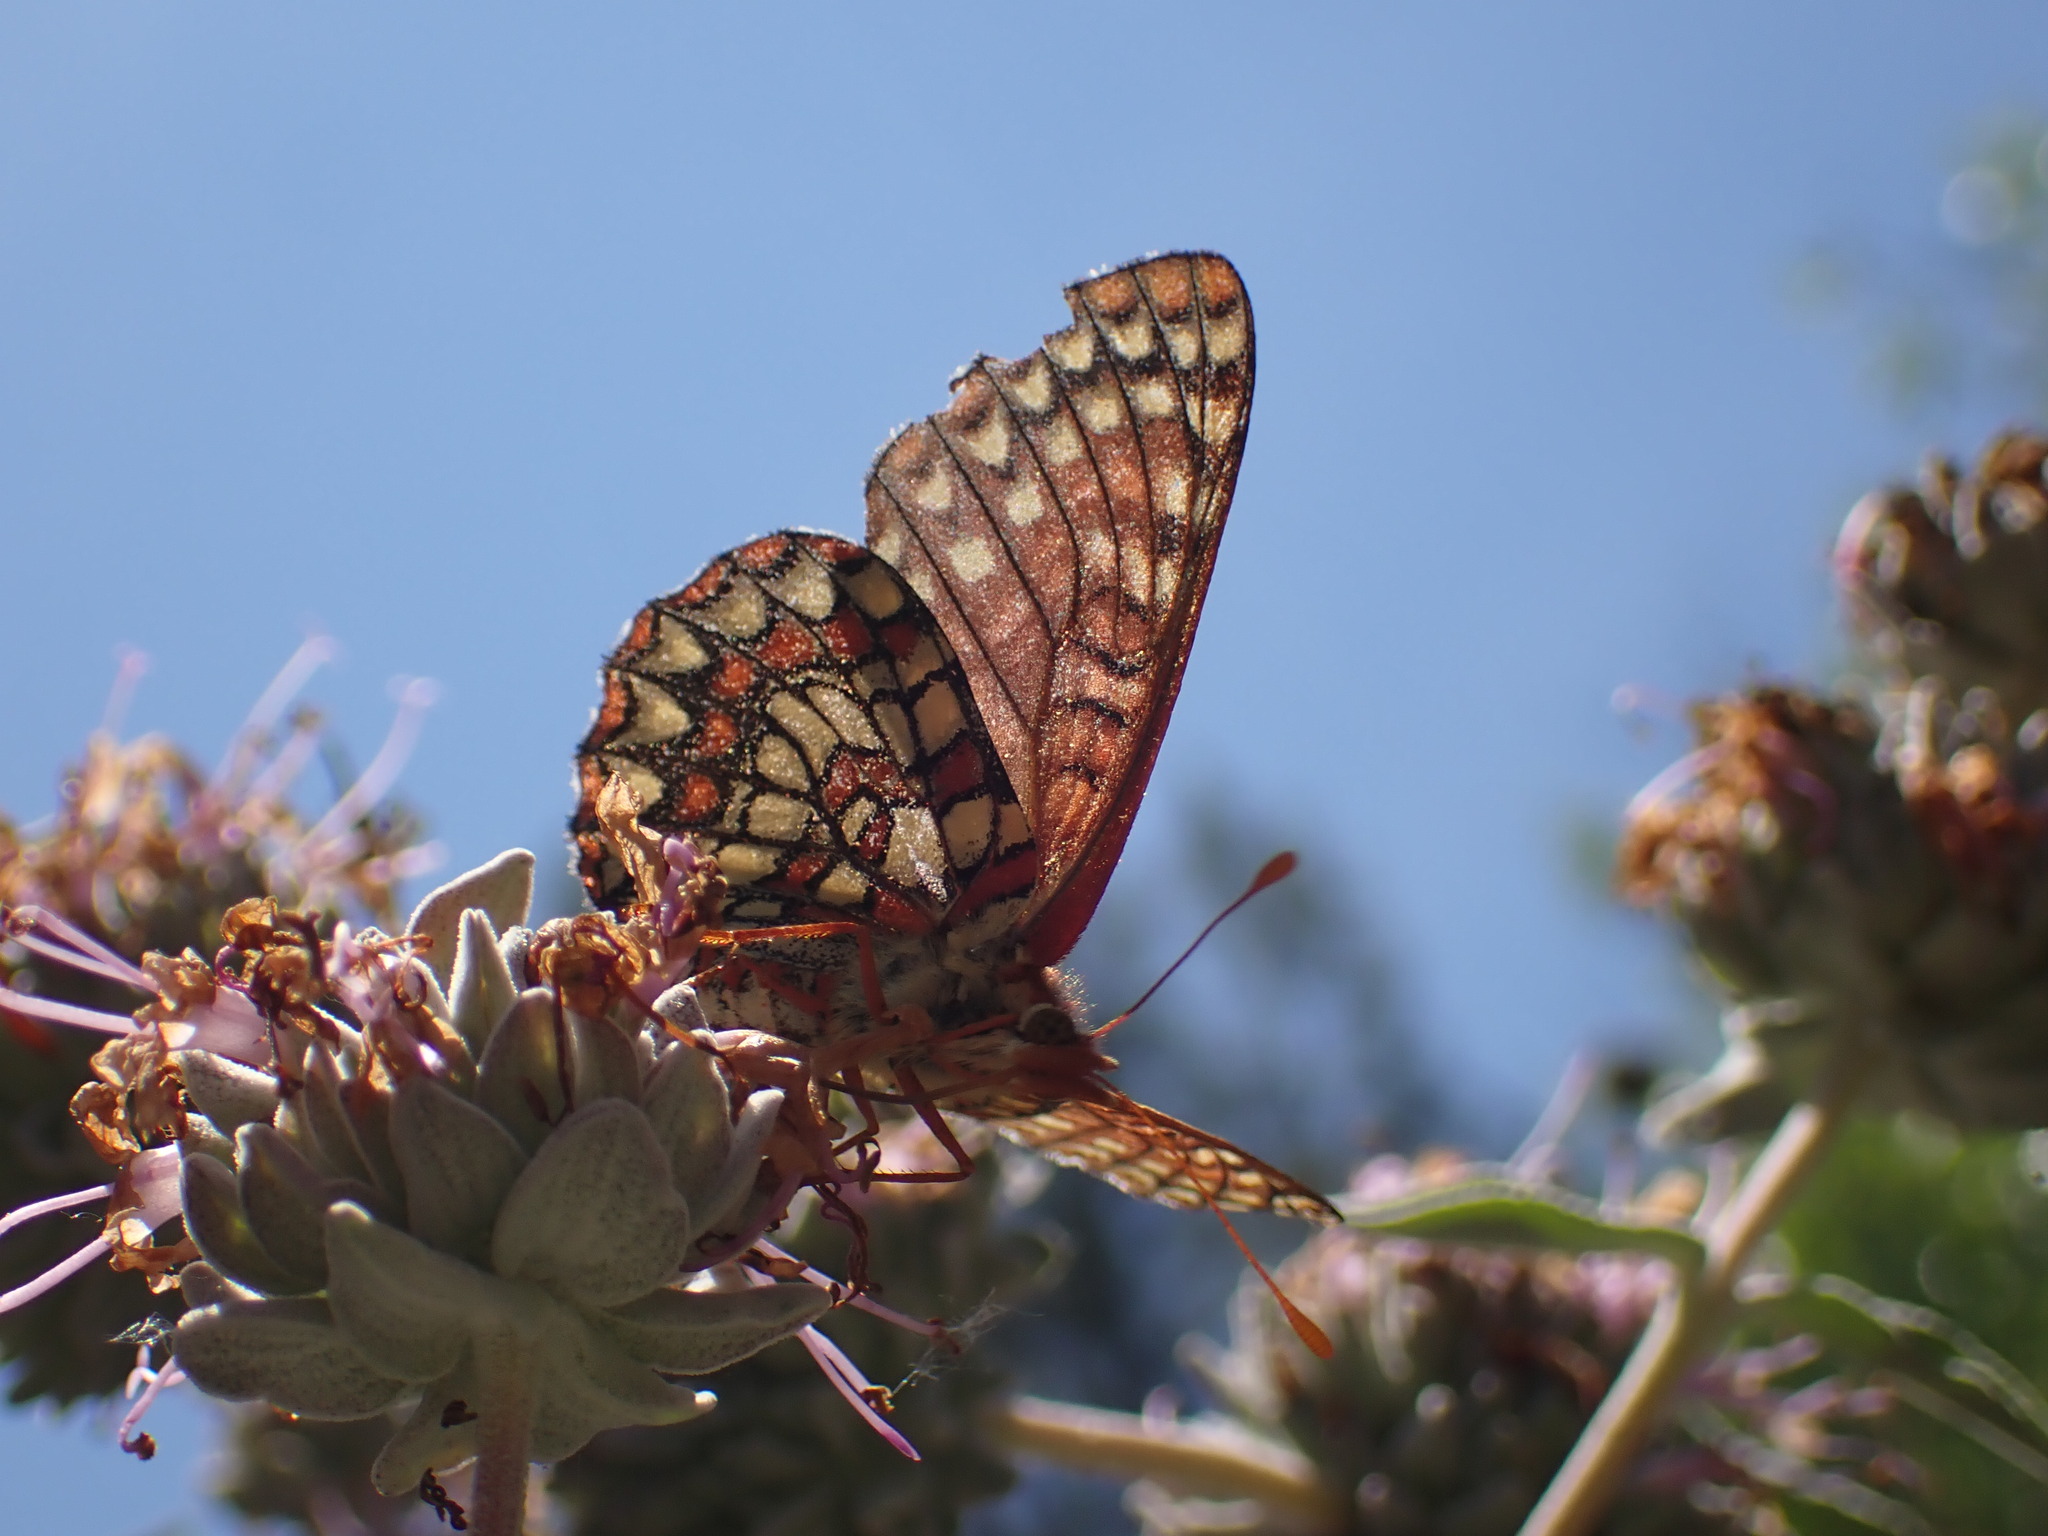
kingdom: Animalia
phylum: Arthropoda
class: Insecta
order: Lepidoptera
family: Nymphalidae
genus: Occidryas
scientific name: Occidryas chalcedona
